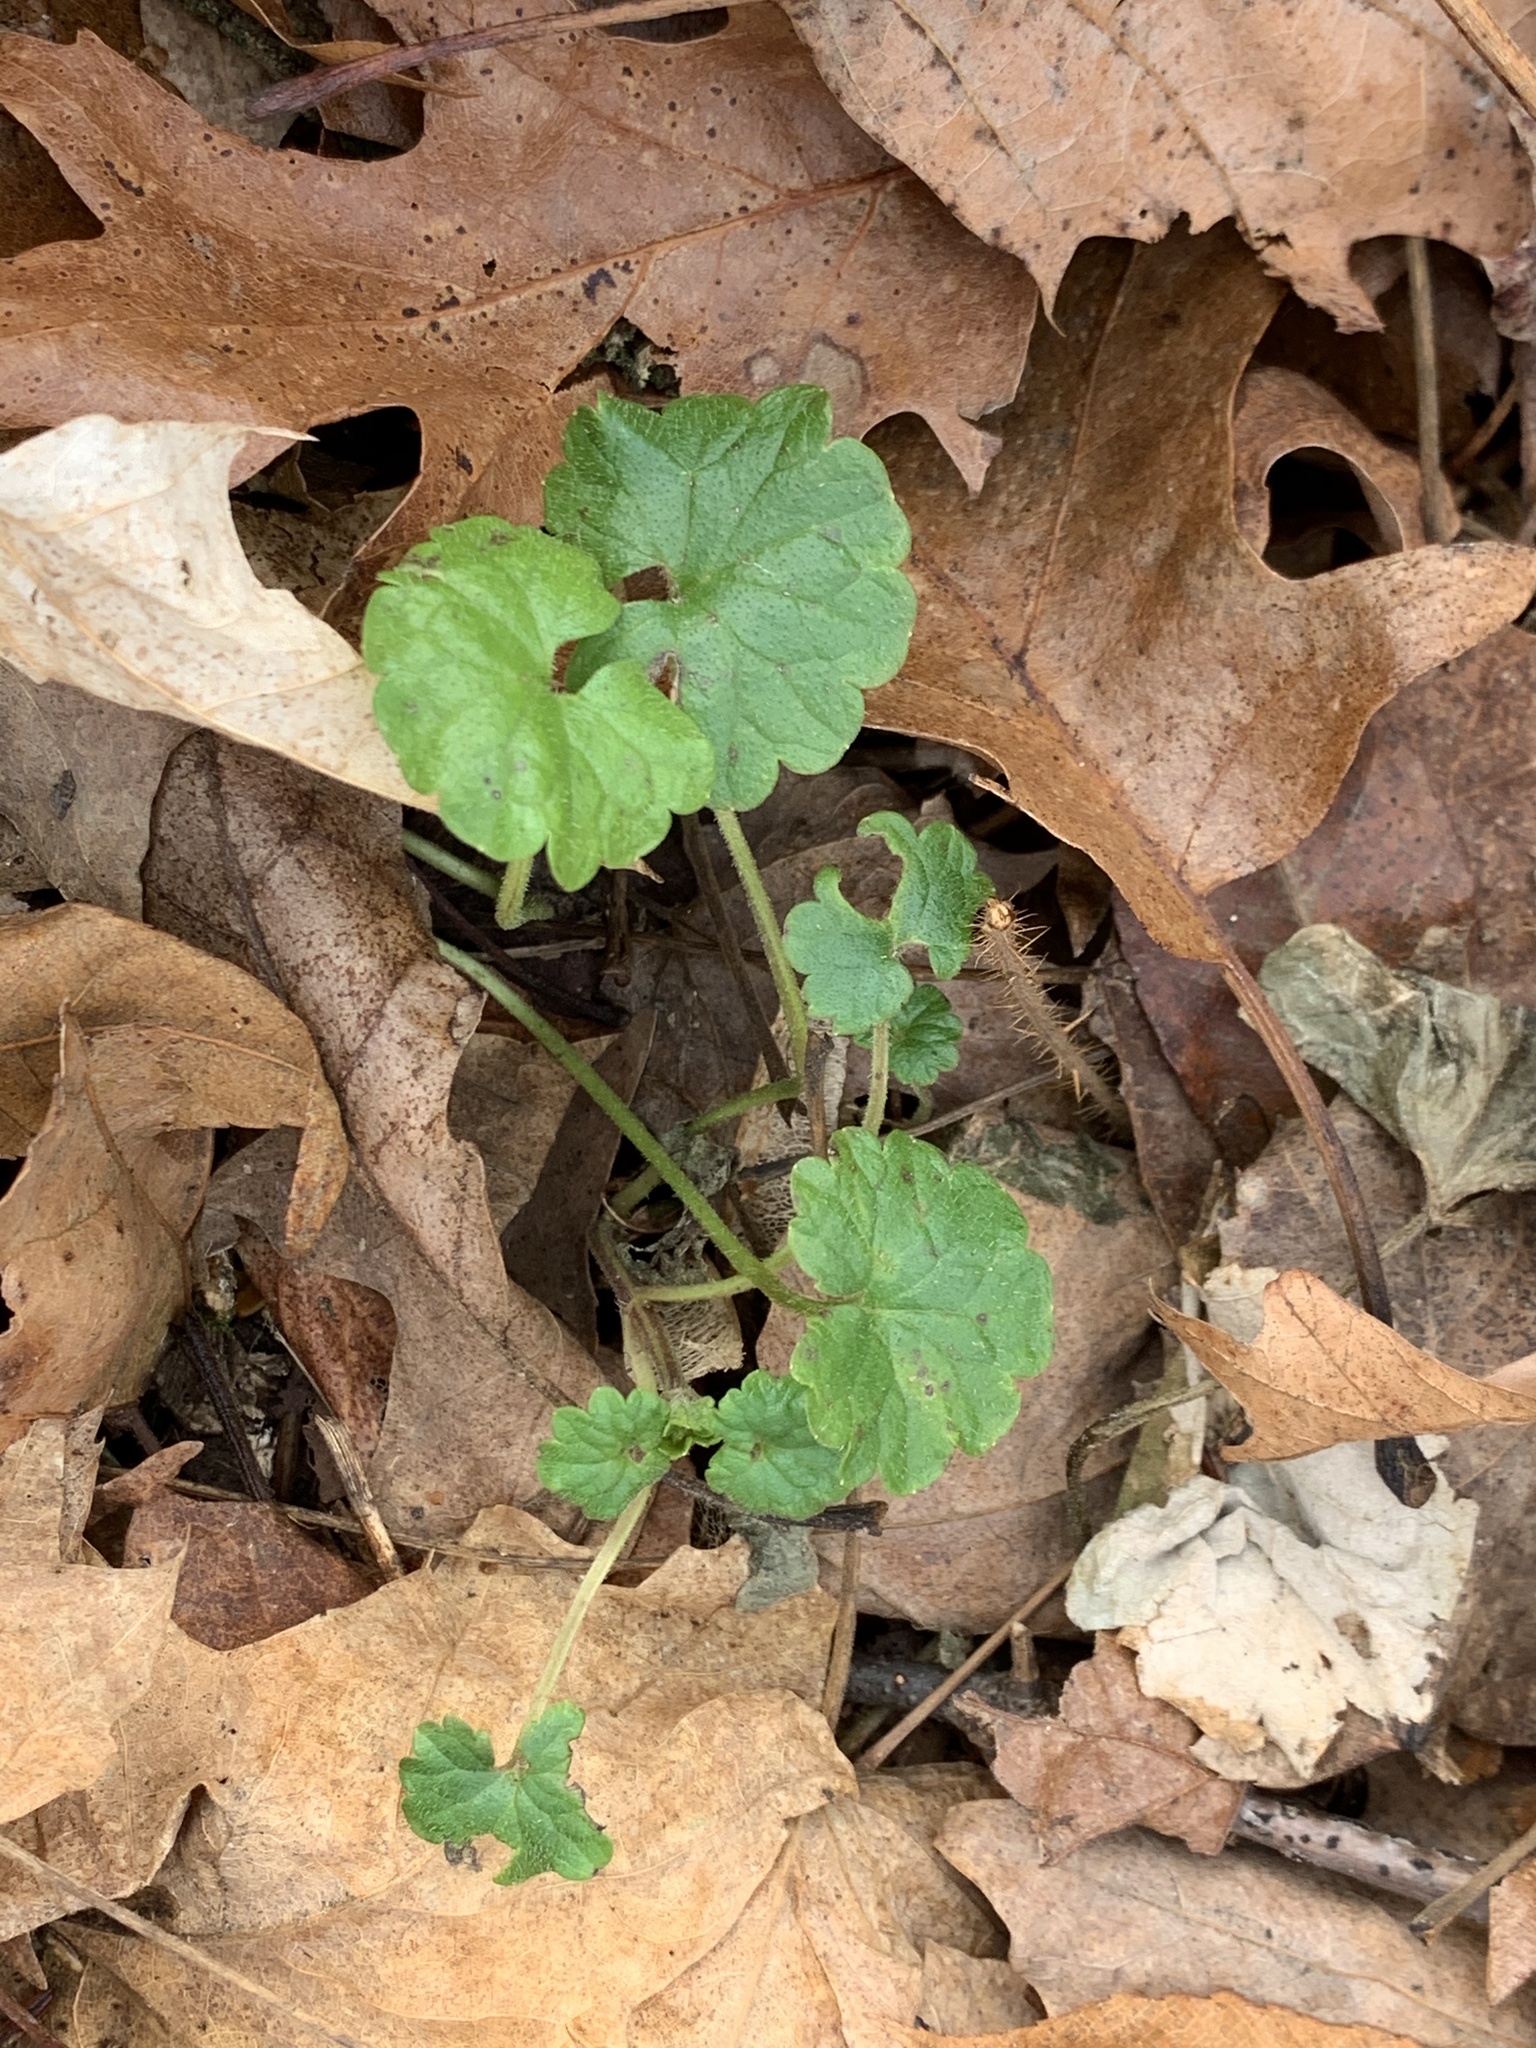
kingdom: Plantae
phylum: Tracheophyta
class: Magnoliopsida
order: Lamiales
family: Lamiaceae
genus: Glechoma
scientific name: Glechoma hederacea
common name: Ground ivy
